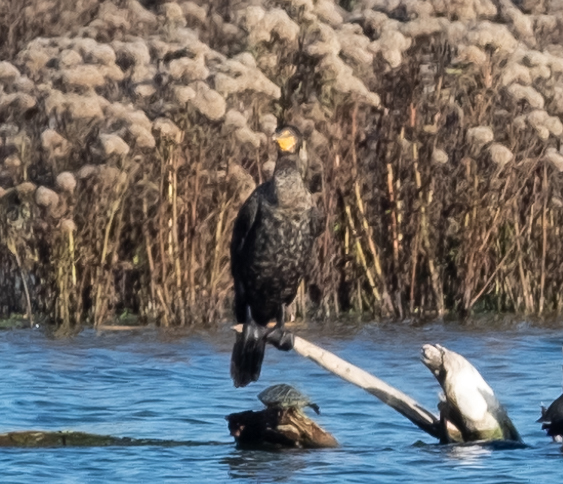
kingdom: Animalia
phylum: Chordata
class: Aves
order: Suliformes
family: Phalacrocoracidae
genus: Phalacrocorax
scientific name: Phalacrocorax auritus
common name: Double-crested cormorant
